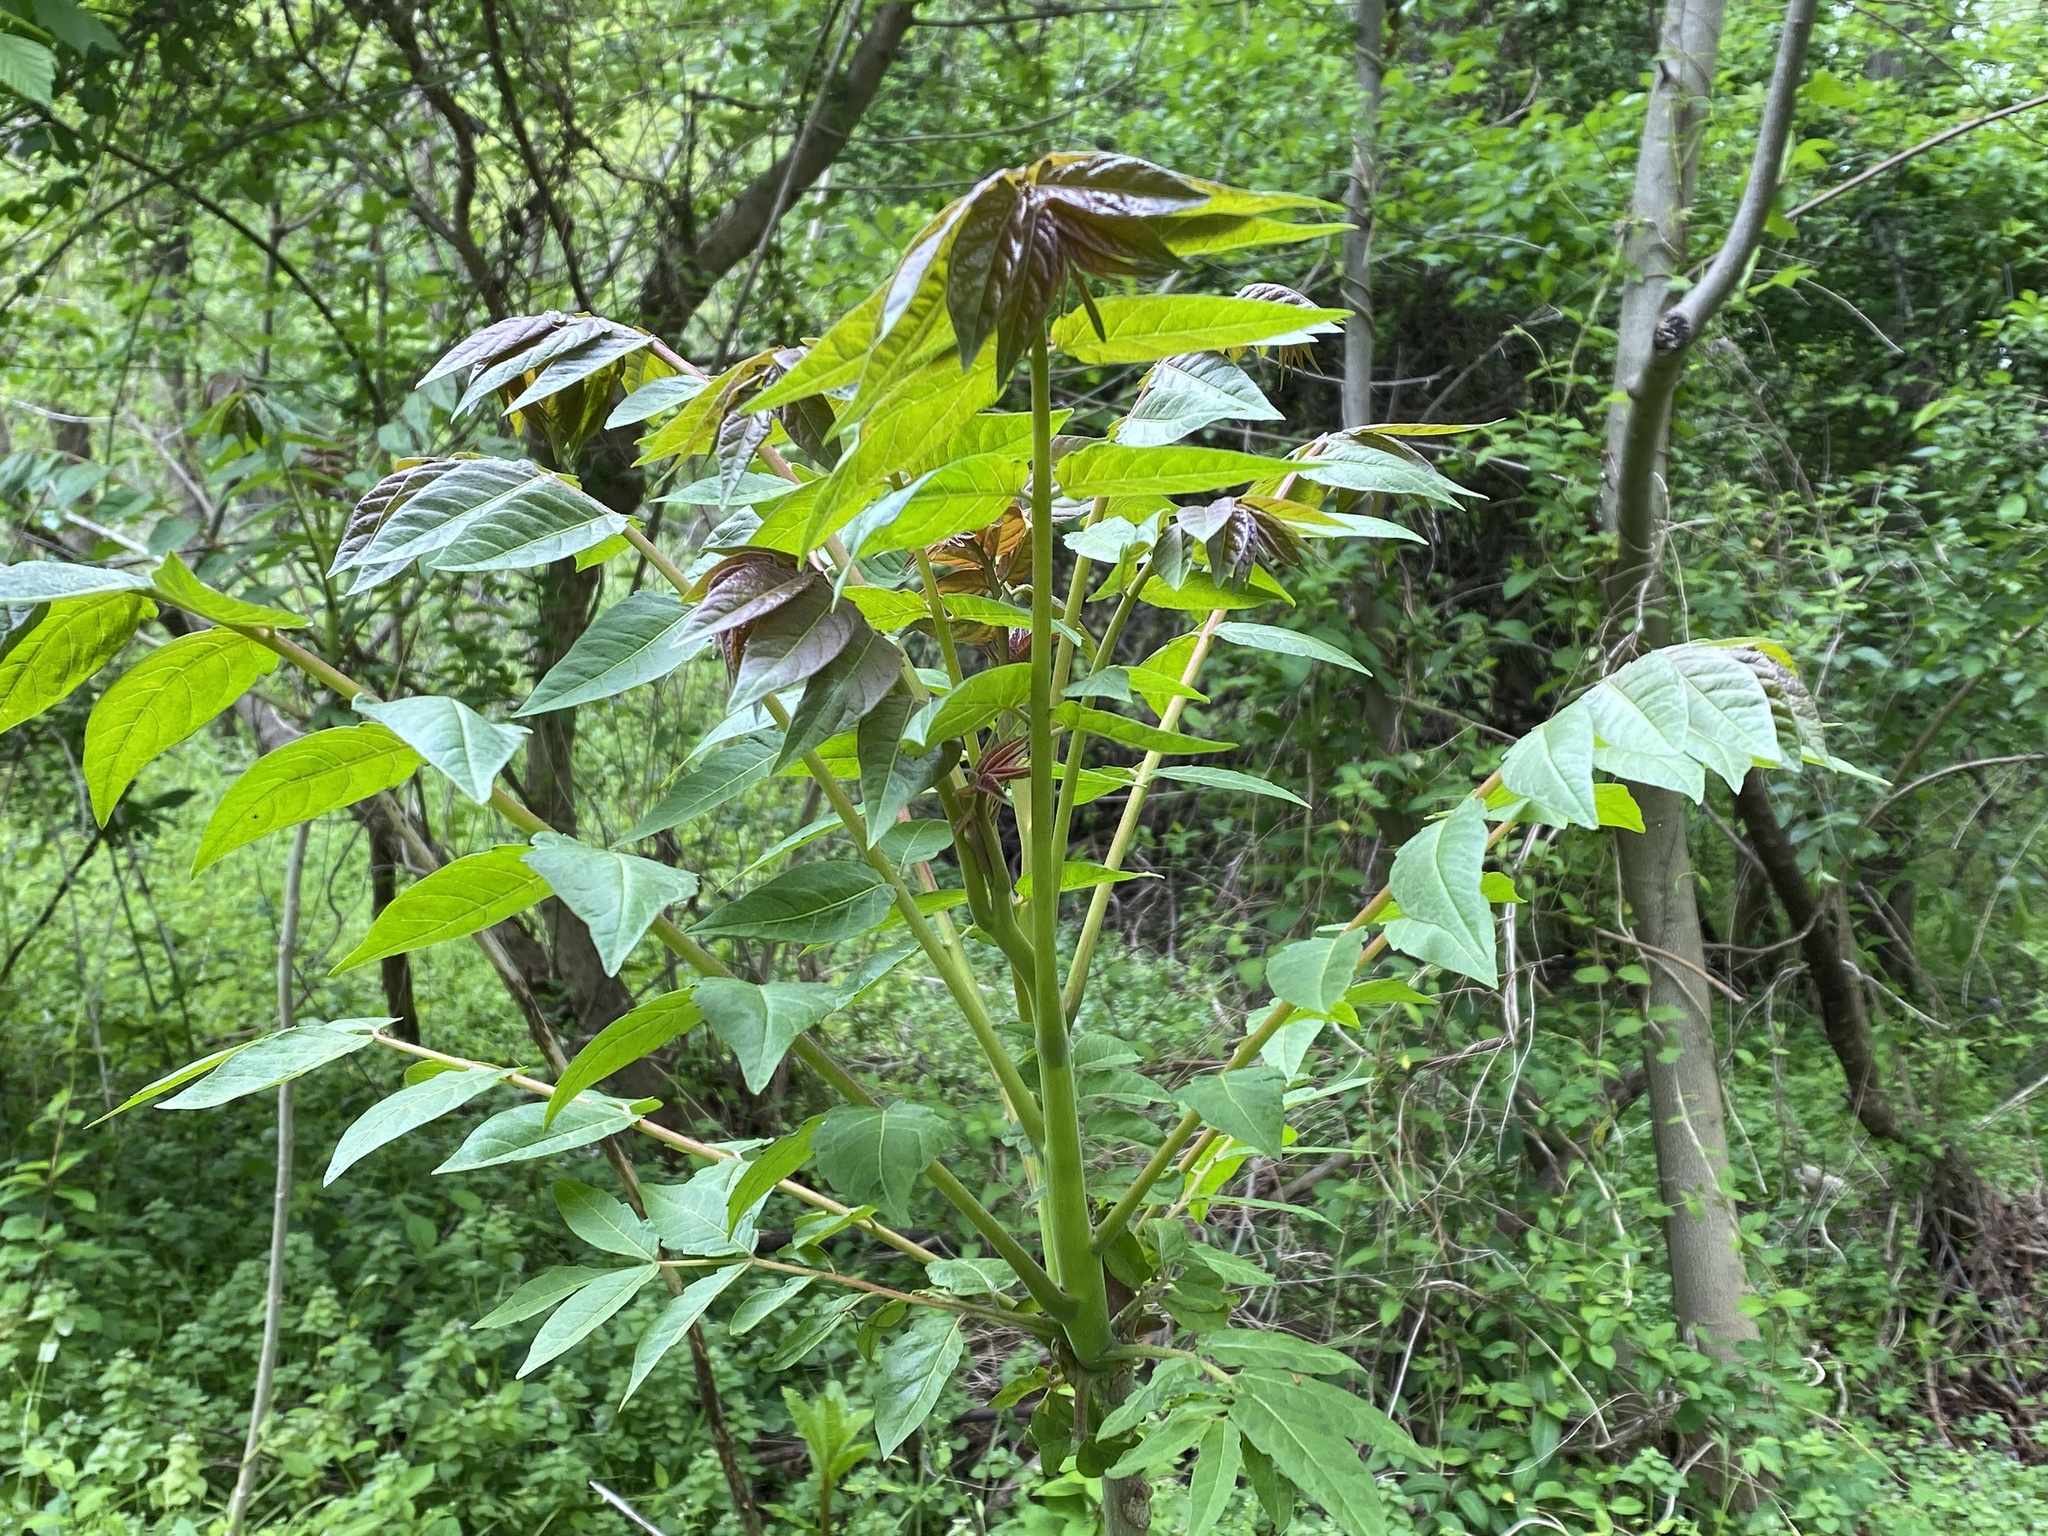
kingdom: Plantae
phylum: Tracheophyta
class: Magnoliopsida
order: Sapindales
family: Simaroubaceae
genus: Ailanthus
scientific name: Ailanthus altissima
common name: Tree-of-heaven
